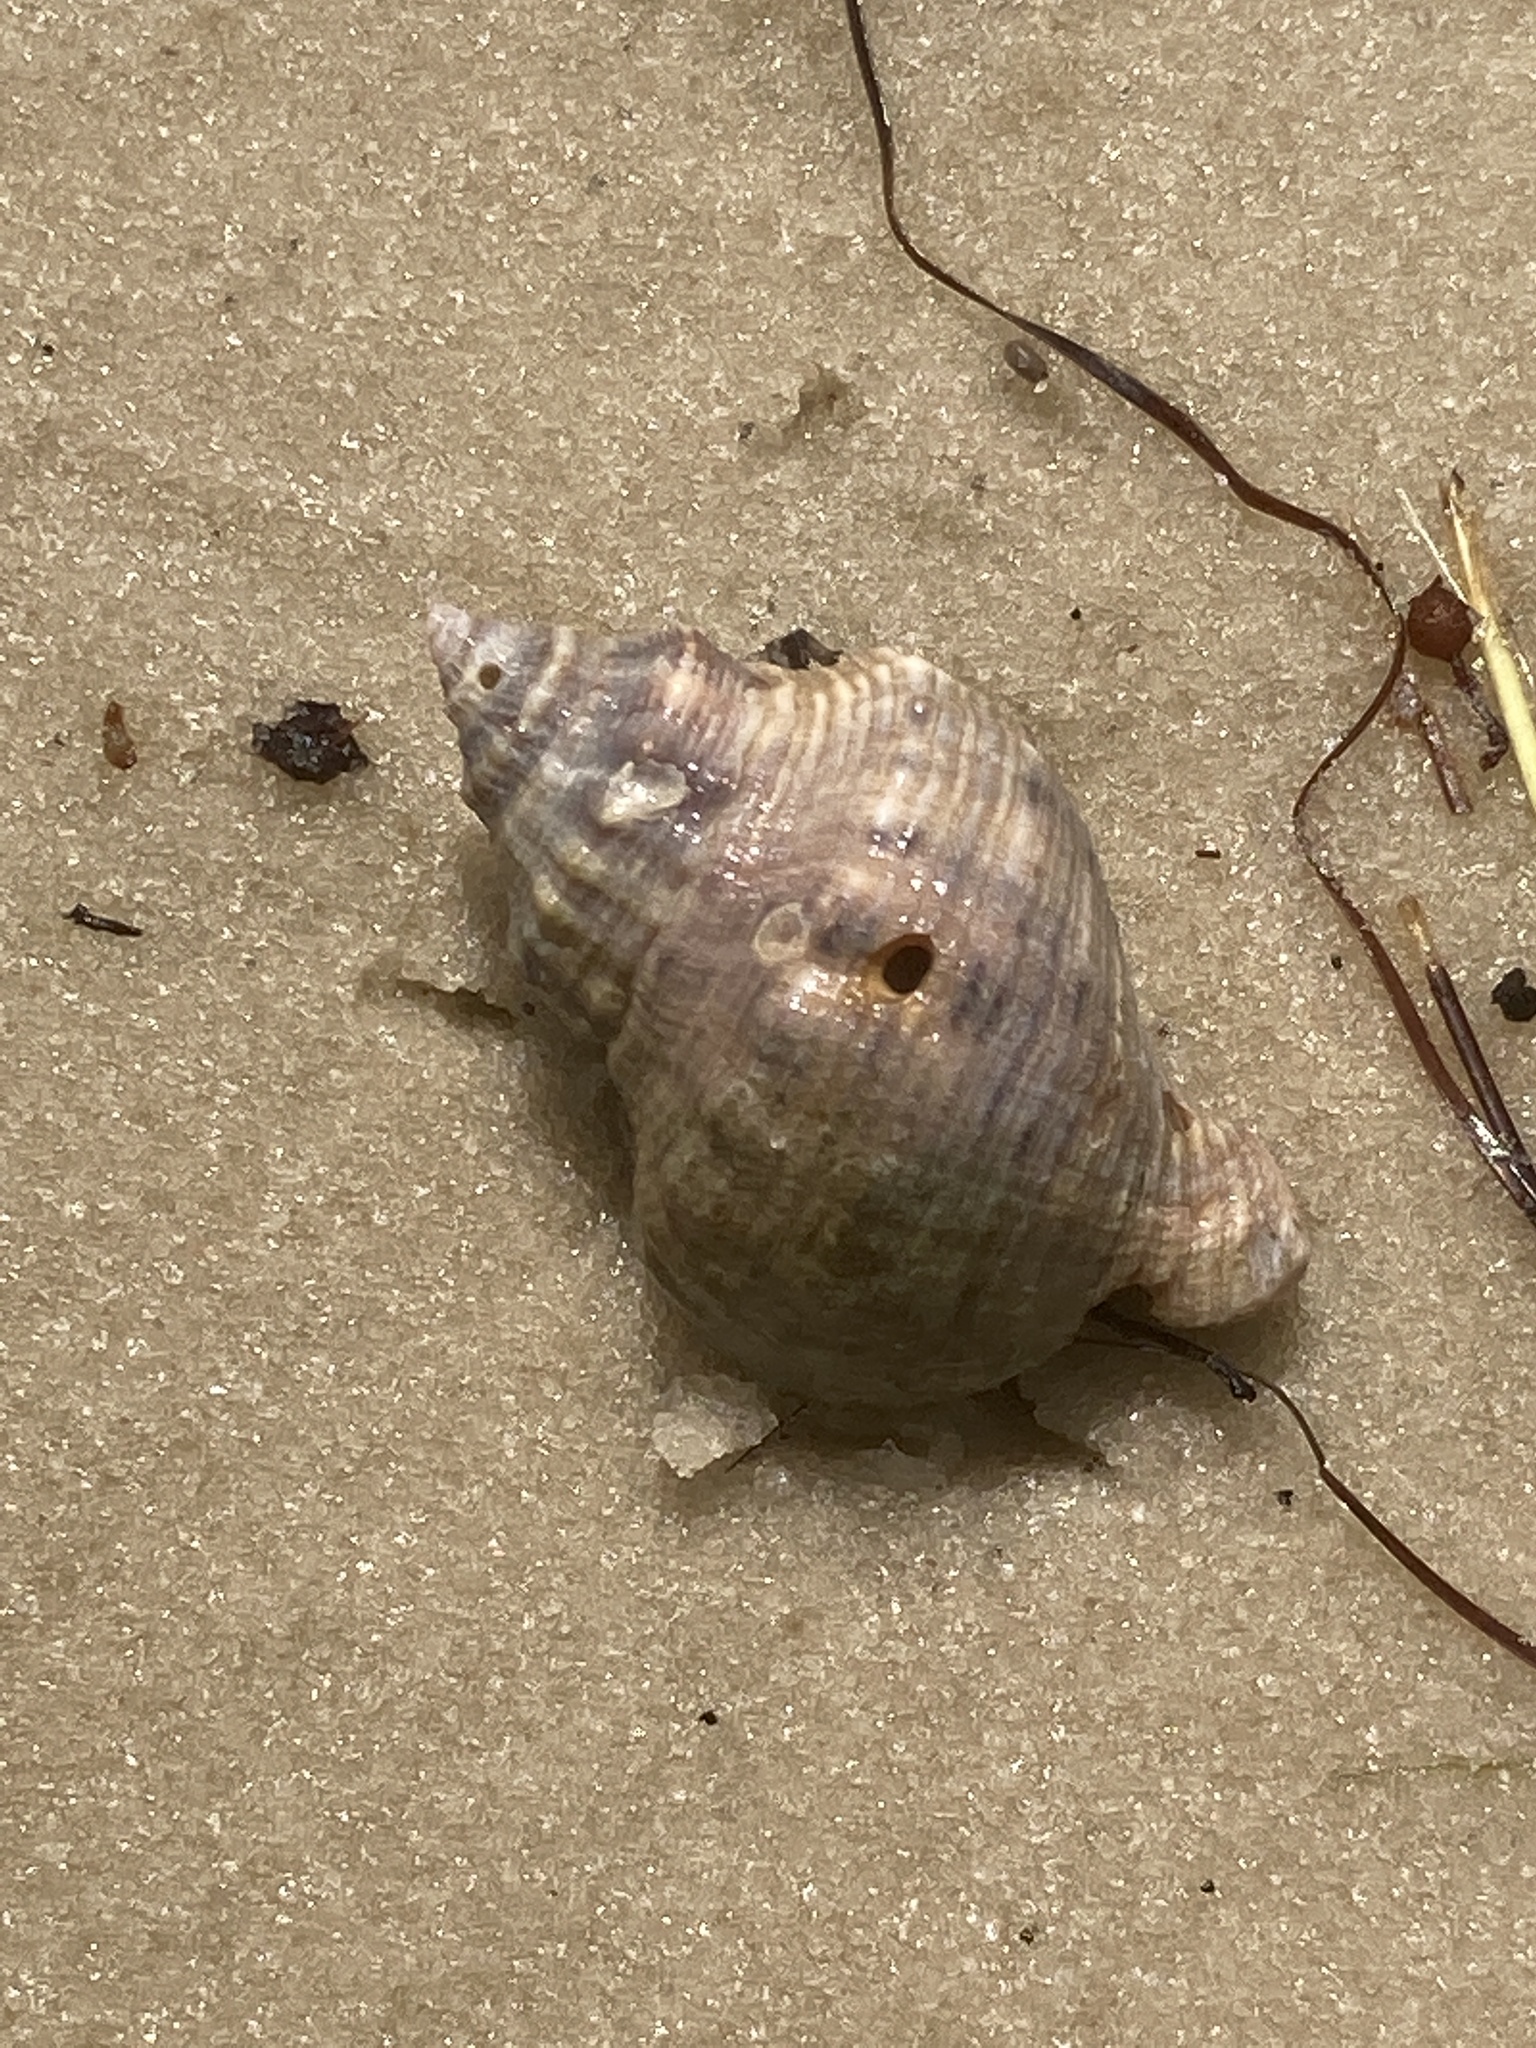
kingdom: Animalia
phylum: Mollusca
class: Gastropoda
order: Neogastropoda
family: Muricidae
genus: Stramonita
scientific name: Stramonita floridana
